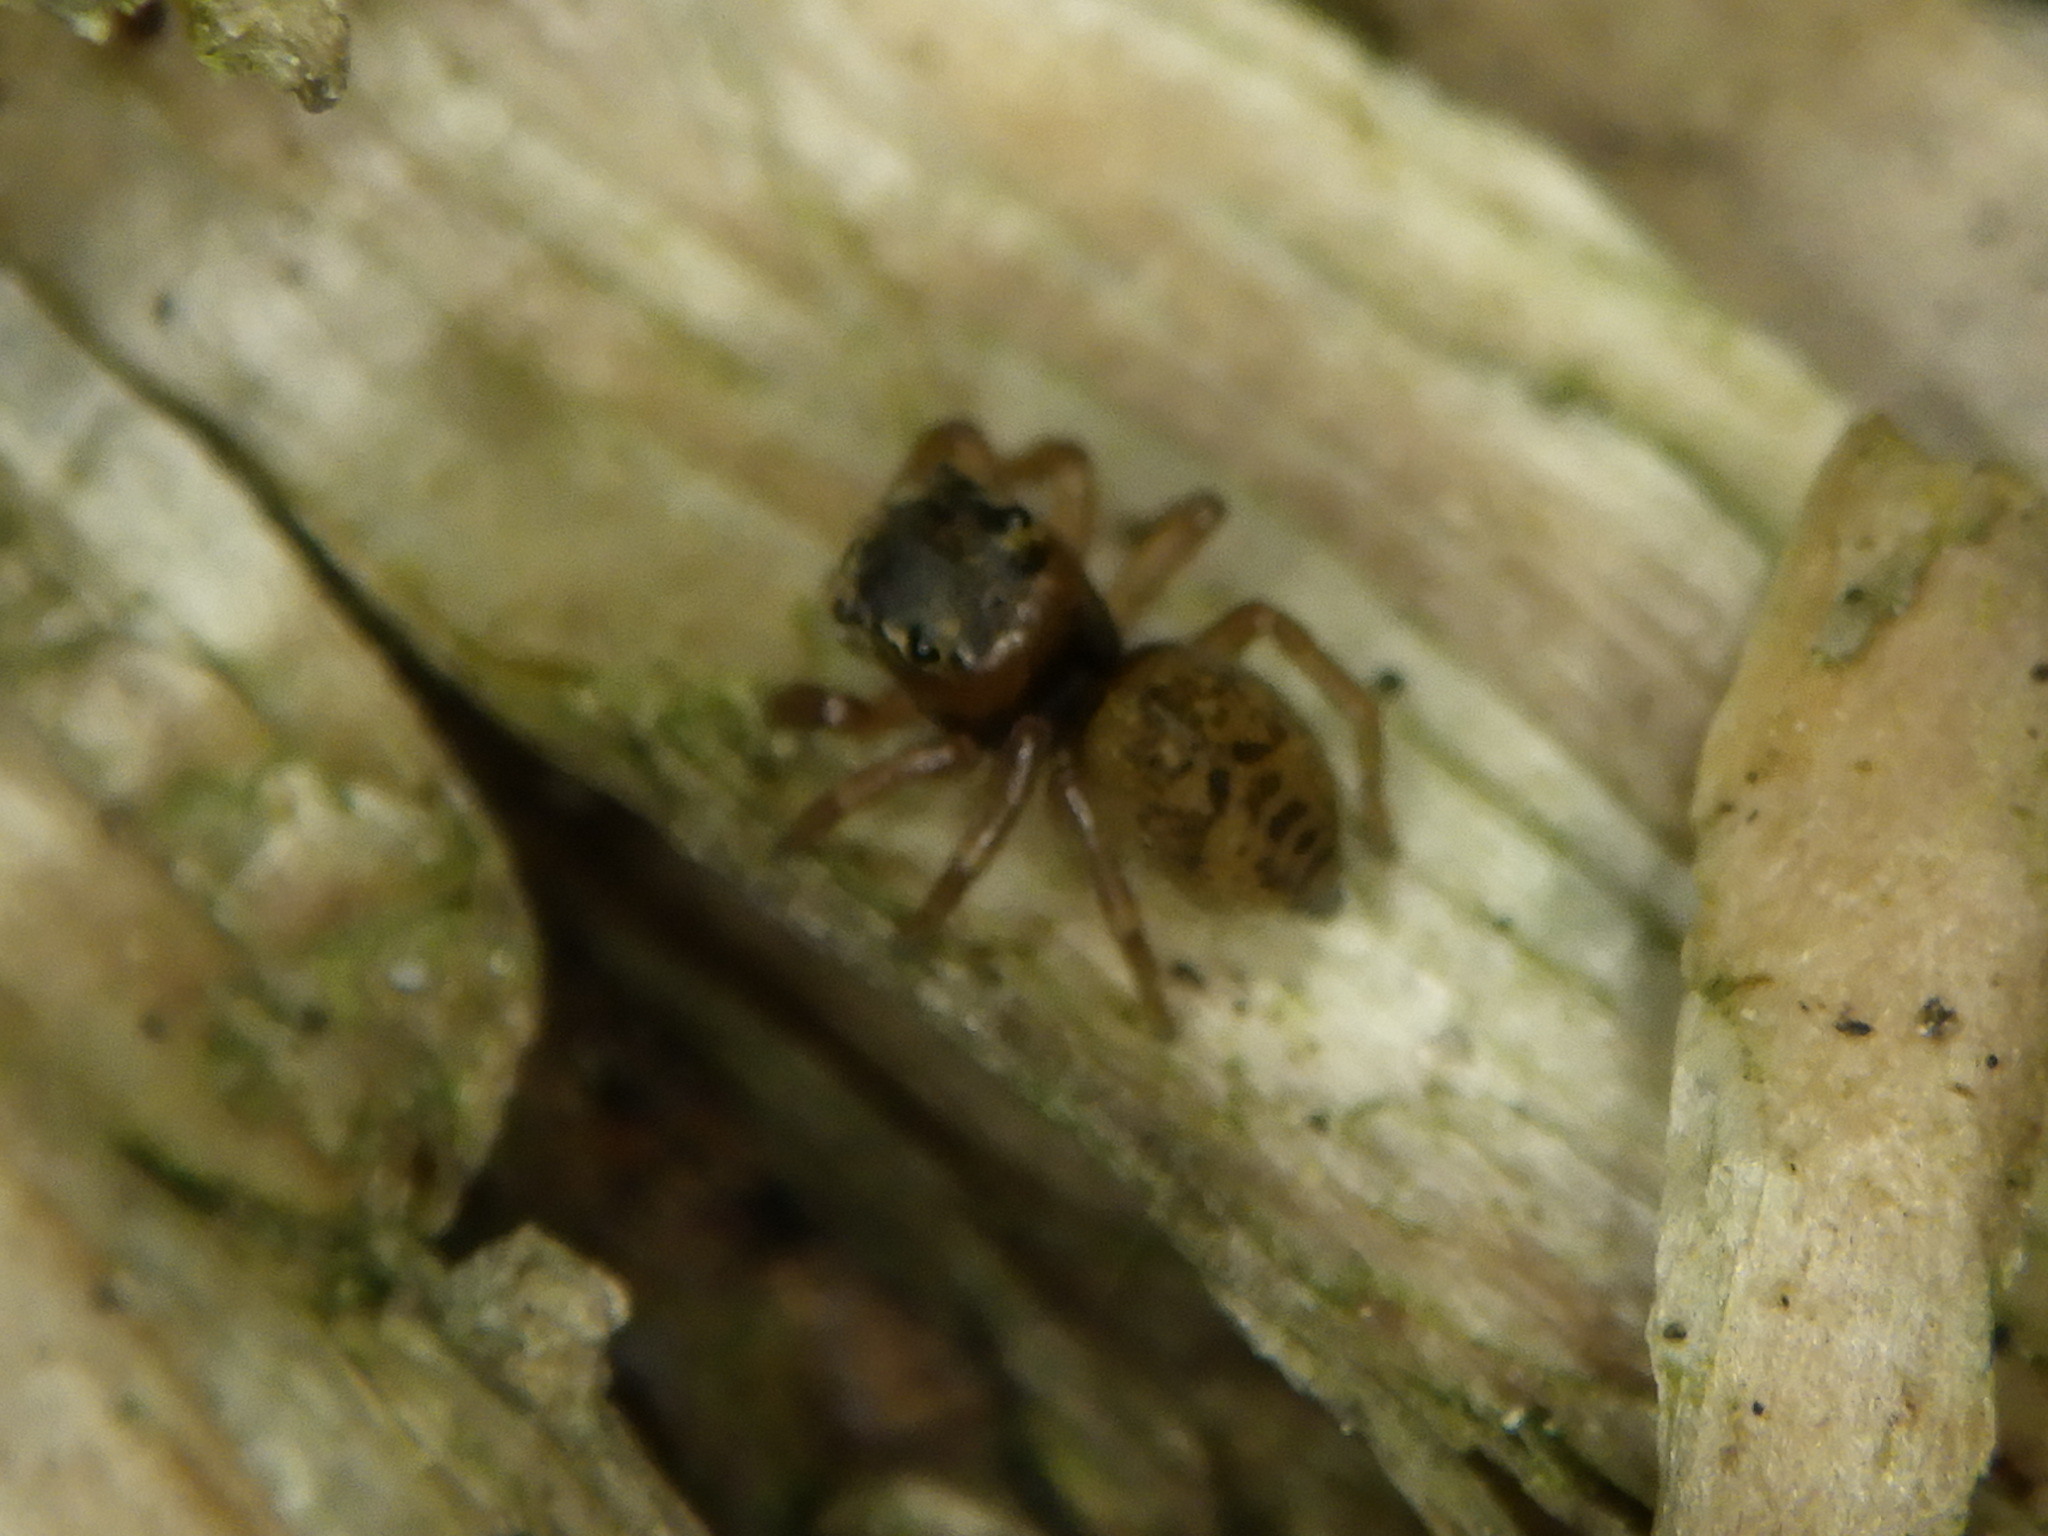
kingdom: Animalia
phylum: Arthropoda
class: Arachnida
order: Araneae
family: Salticidae
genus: Neon
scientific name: Neon nelli
